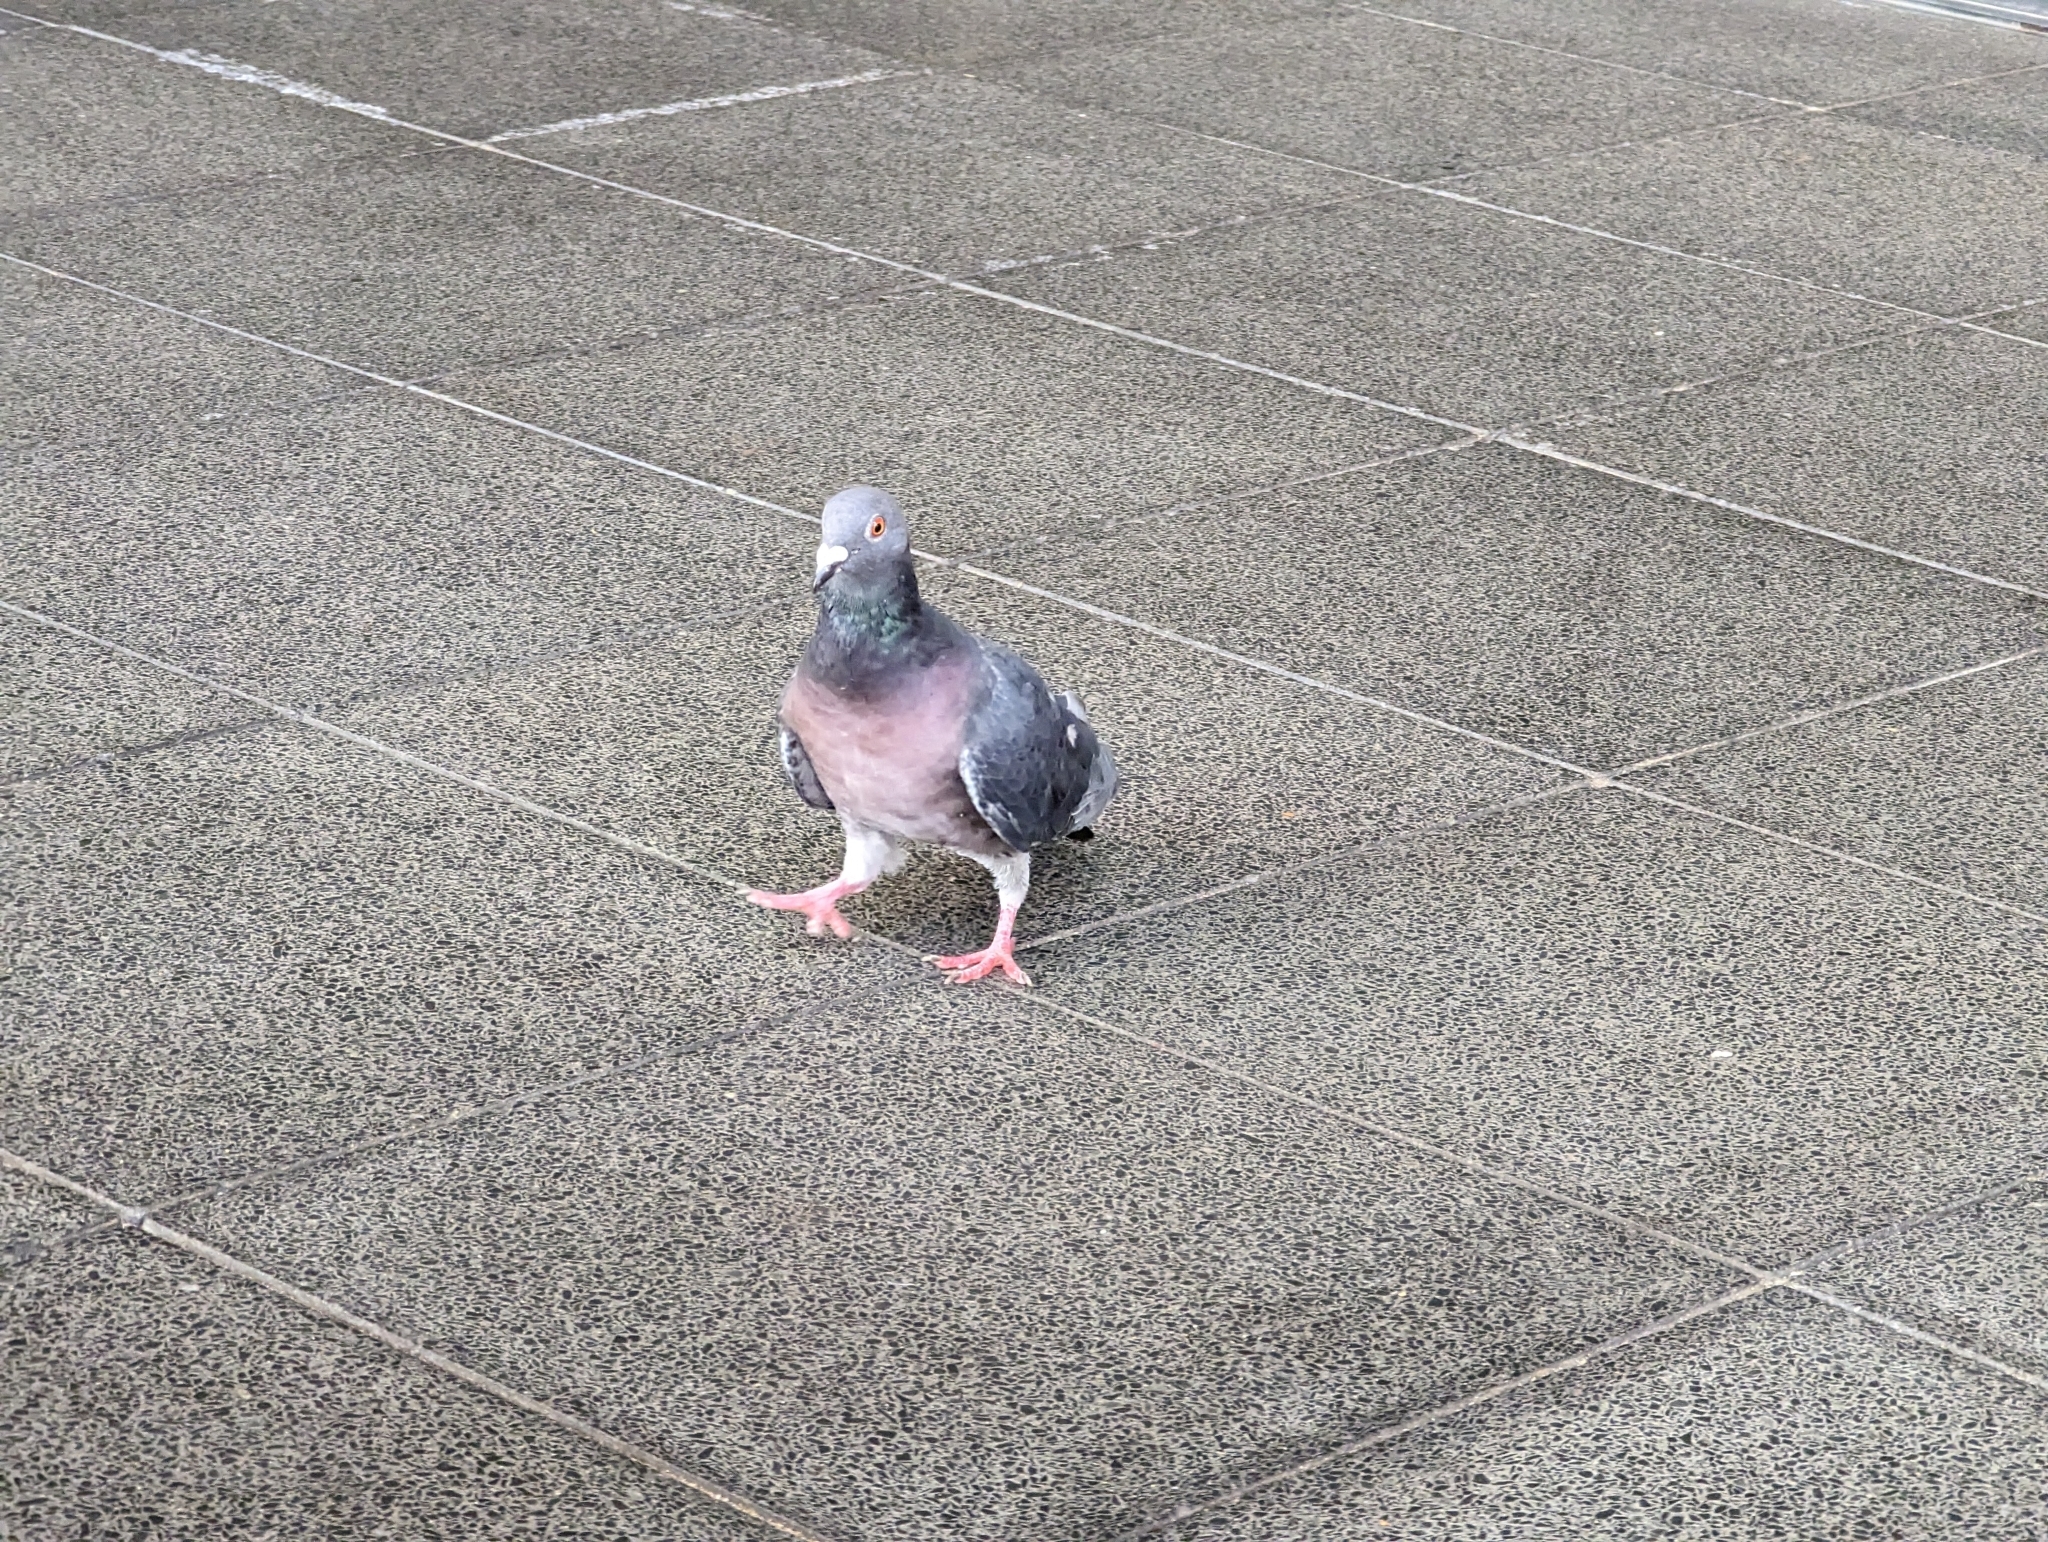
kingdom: Animalia
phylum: Chordata
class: Aves
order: Columbiformes
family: Columbidae
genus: Columba
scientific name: Columba livia
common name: Rock pigeon
